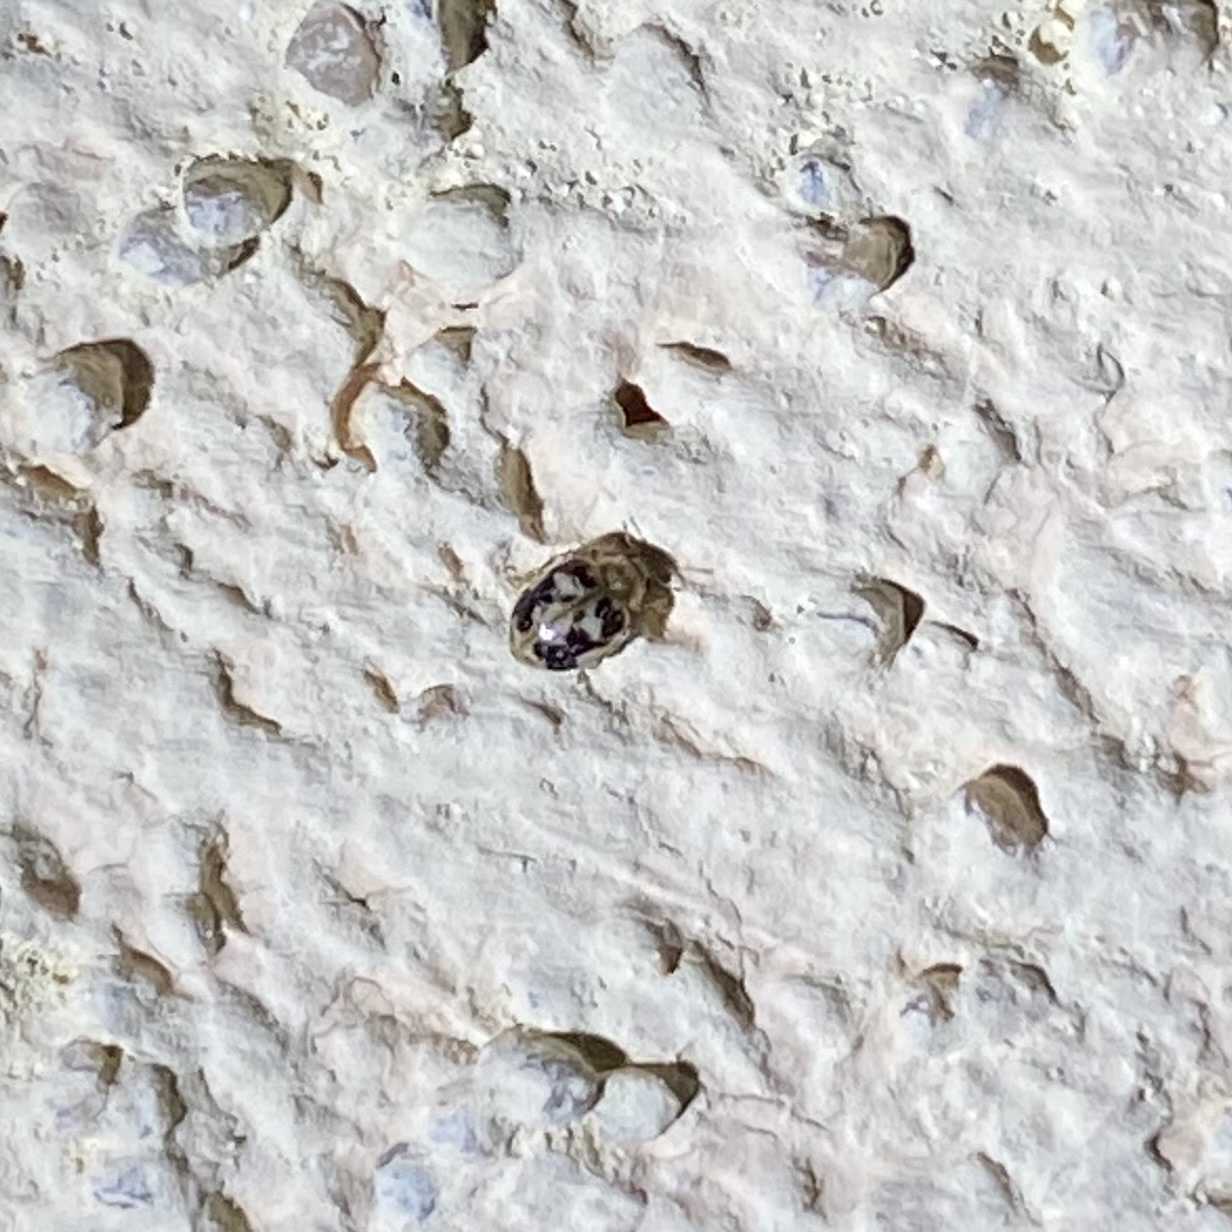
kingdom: Animalia
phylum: Arthropoda
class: Insecta
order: Coleoptera
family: Coccinellidae
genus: Psyllobora
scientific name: Psyllobora renifer
